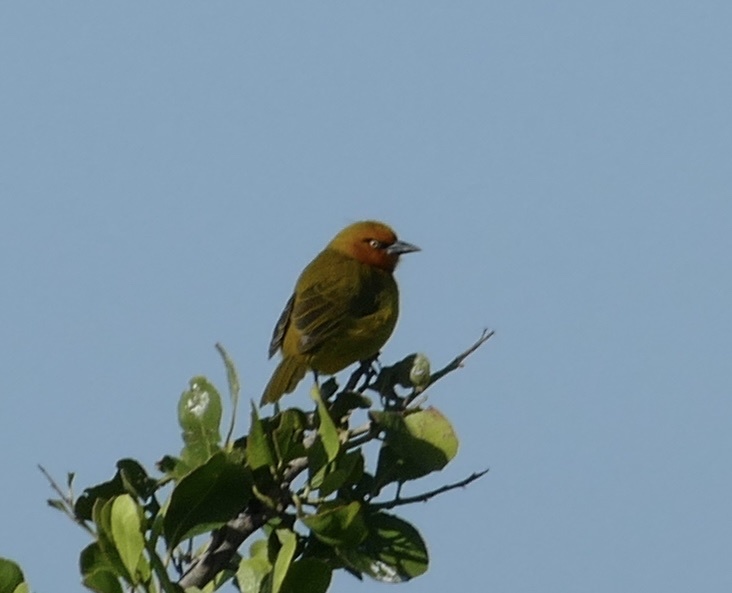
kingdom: Animalia
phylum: Chordata
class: Aves
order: Passeriformes
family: Ploceidae
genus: Ploceus
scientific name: Ploceus ocularis
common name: Spectacled weaver
